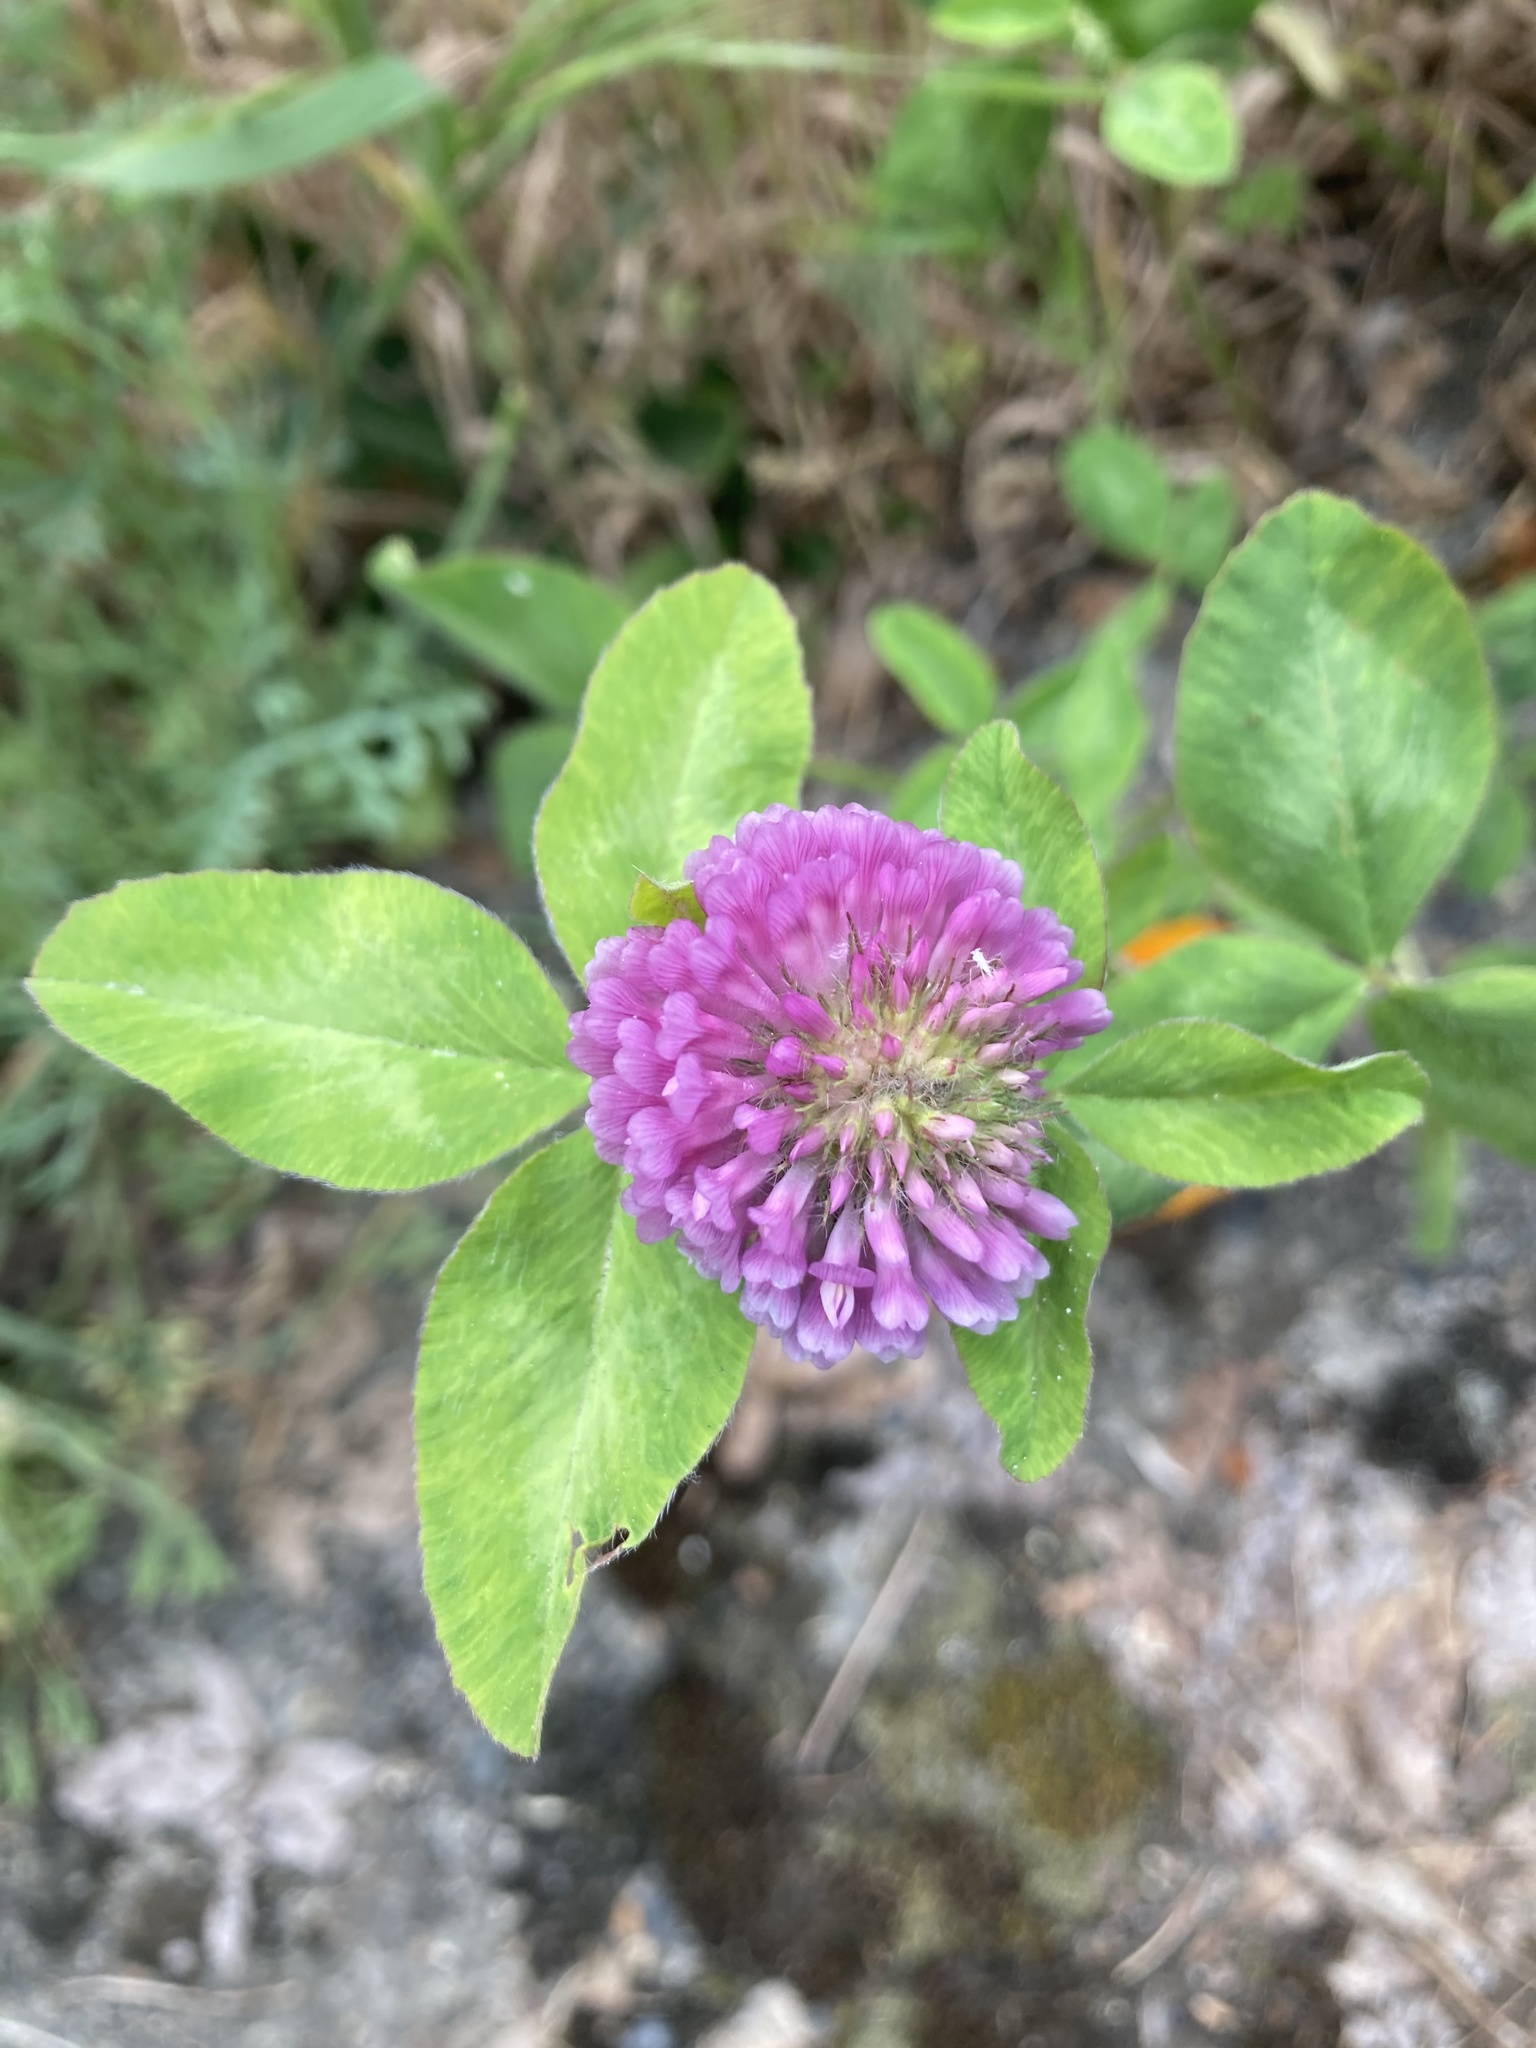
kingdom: Plantae
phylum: Tracheophyta
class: Magnoliopsida
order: Fabales
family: Fabaceae
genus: Trifolium
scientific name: Trifolium pratense
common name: Red clover
